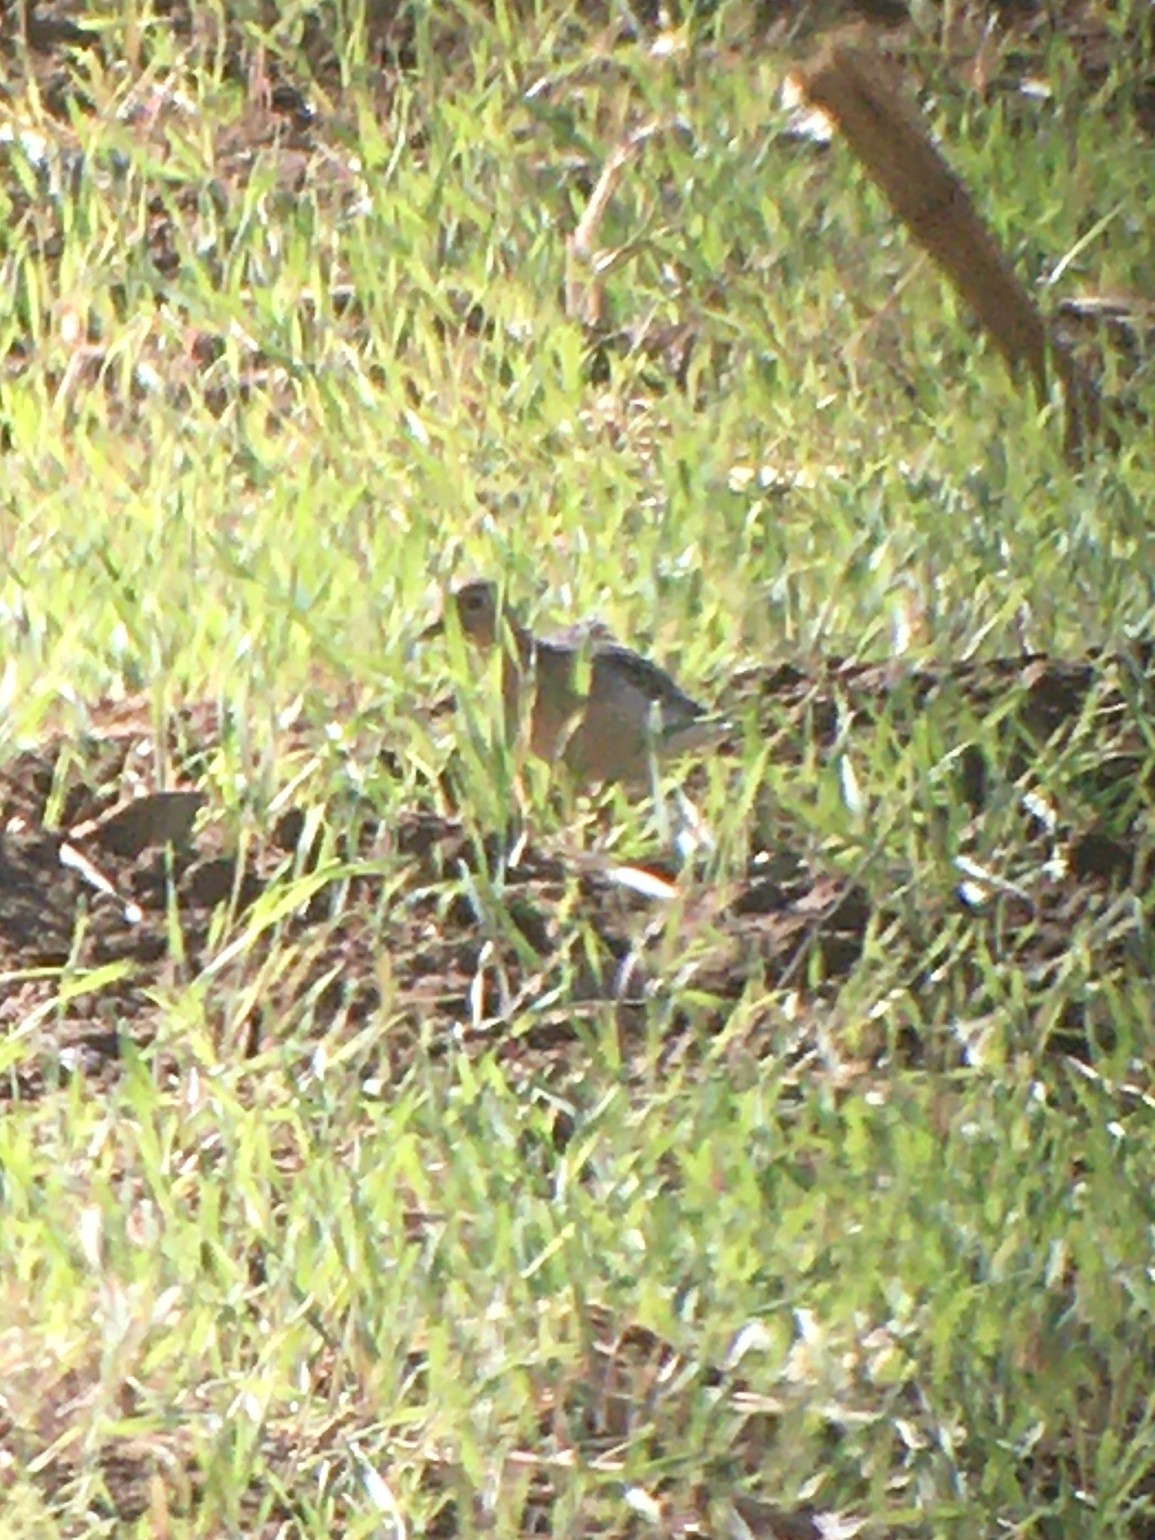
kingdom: Animalia
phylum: Chordata
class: Aves
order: Charadriiformes
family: Scolopacidae
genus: Calidris
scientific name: Calidris subruficollis
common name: Buff-breasted sandpiper
